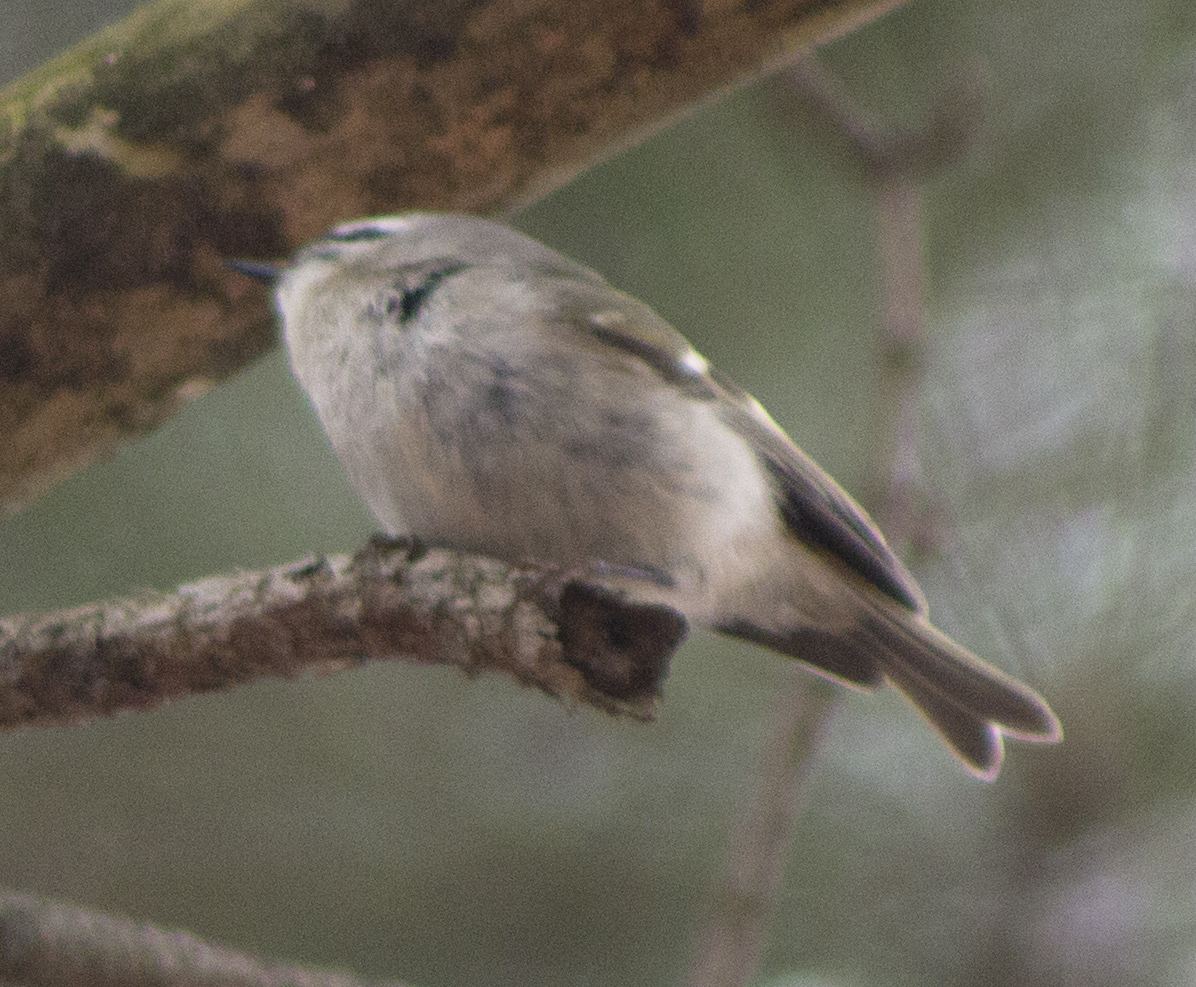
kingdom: Animalia
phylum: Chordata
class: Aves
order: Passeriformes
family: Regulidae
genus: Regulus
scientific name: Regulus satrapa
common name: Golden-crowned kinglet
